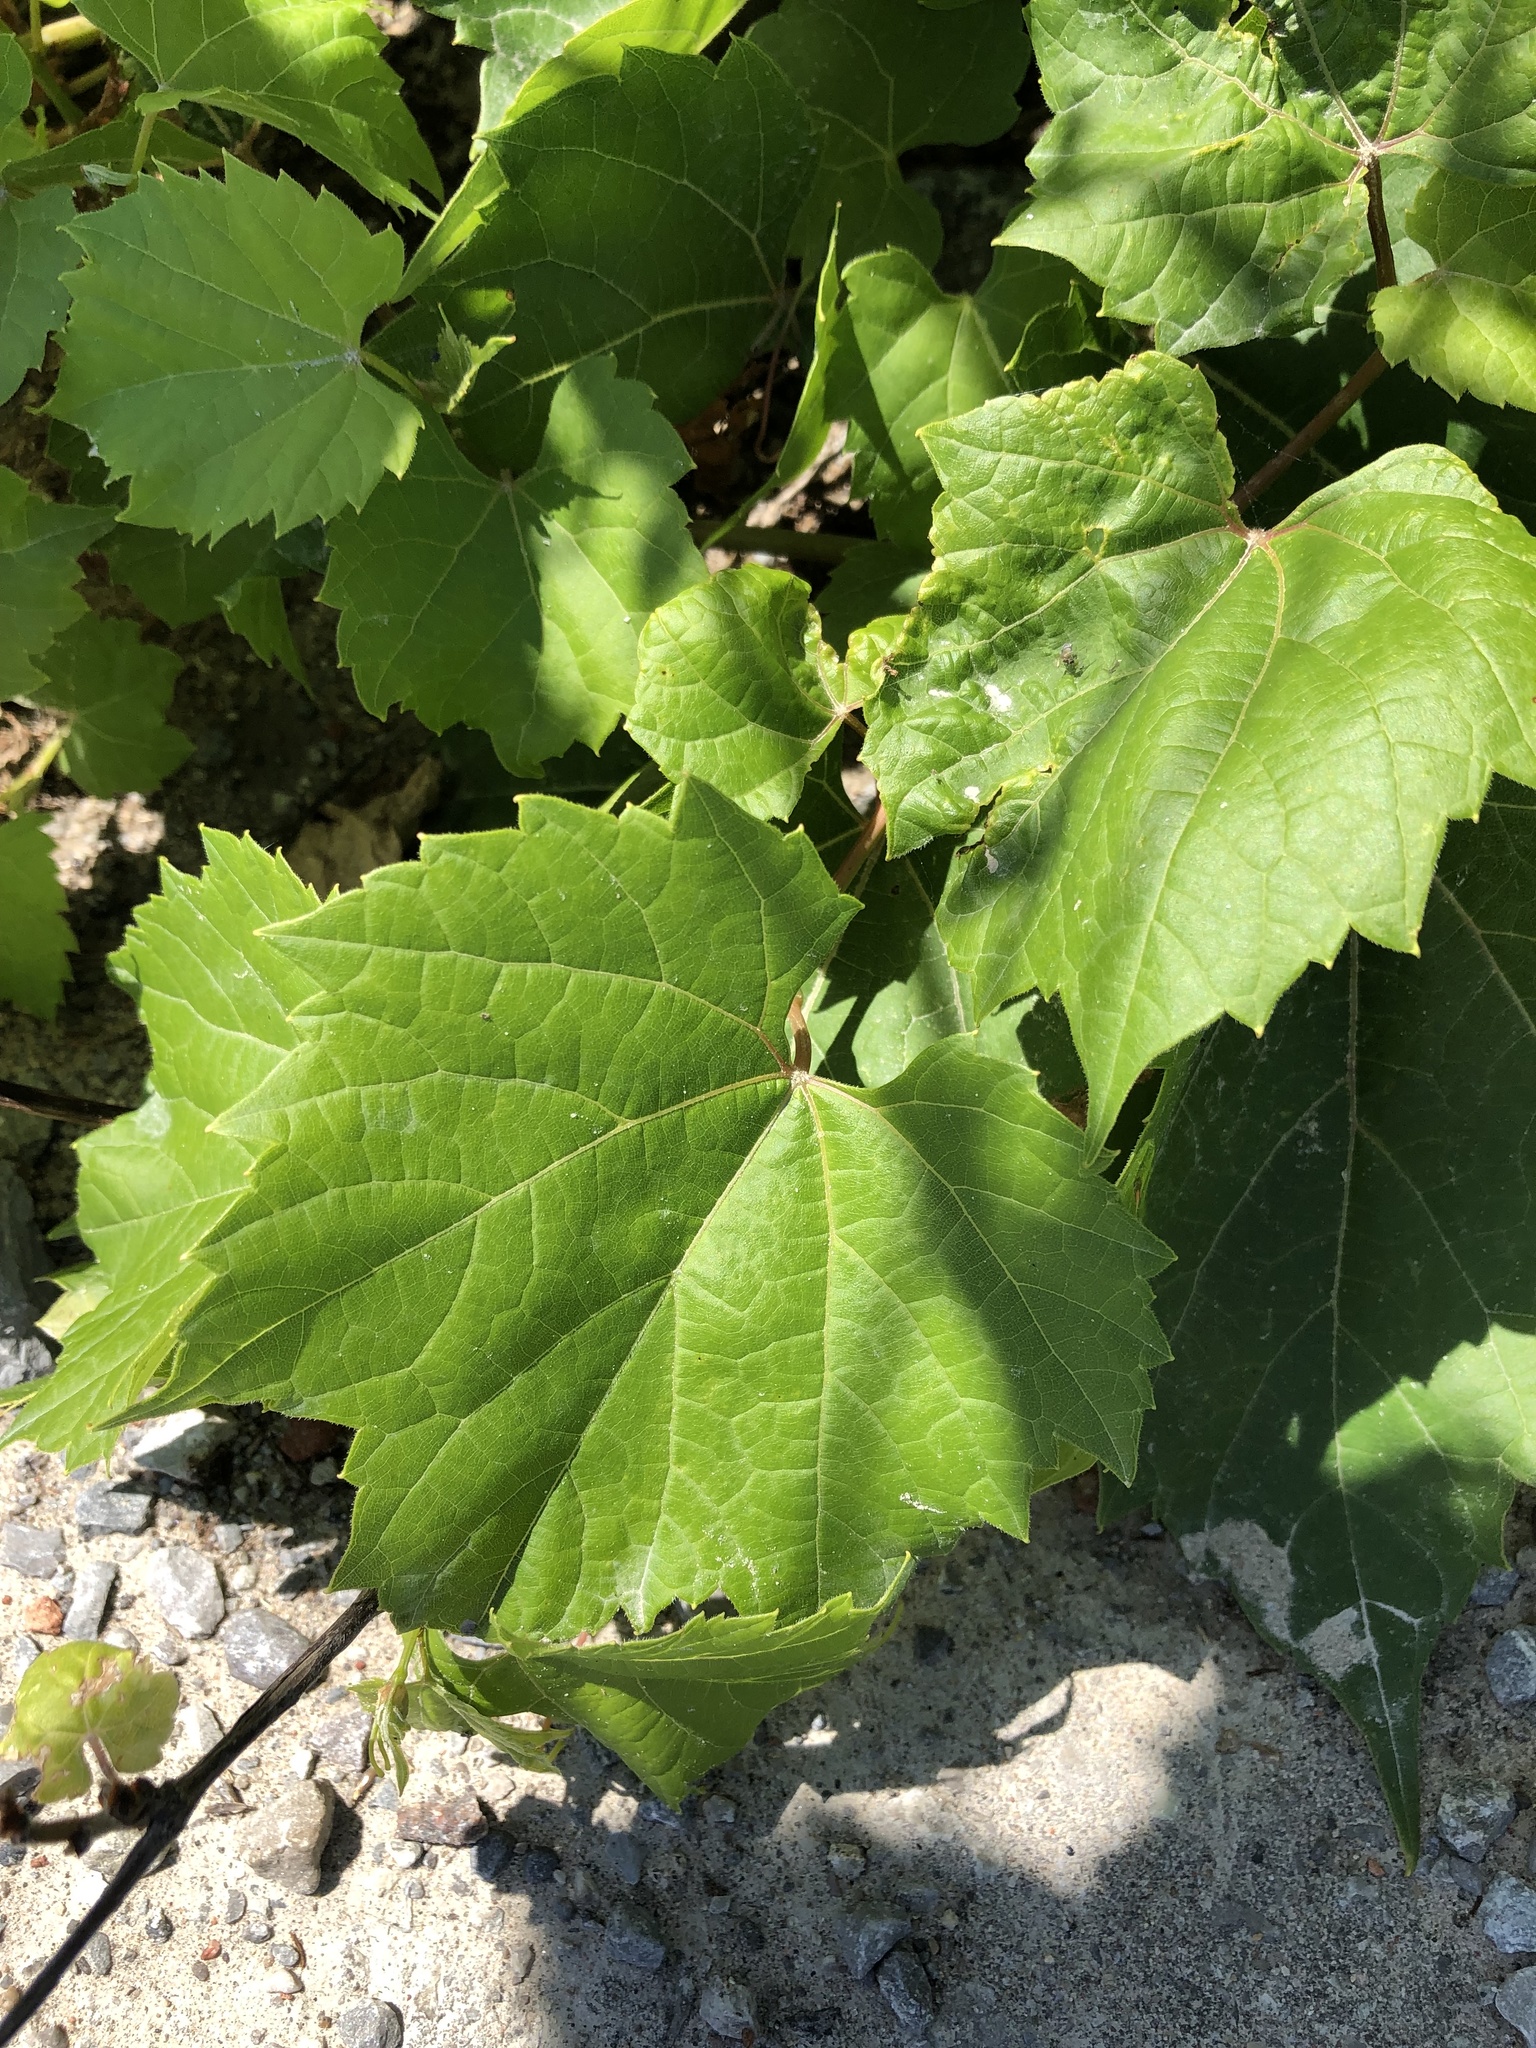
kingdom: Plantae
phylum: Tracheophyta
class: Magnoliopsida
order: Vitales
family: Vitaceae
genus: Vitis
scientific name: Vitis riparia
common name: Frost grape
